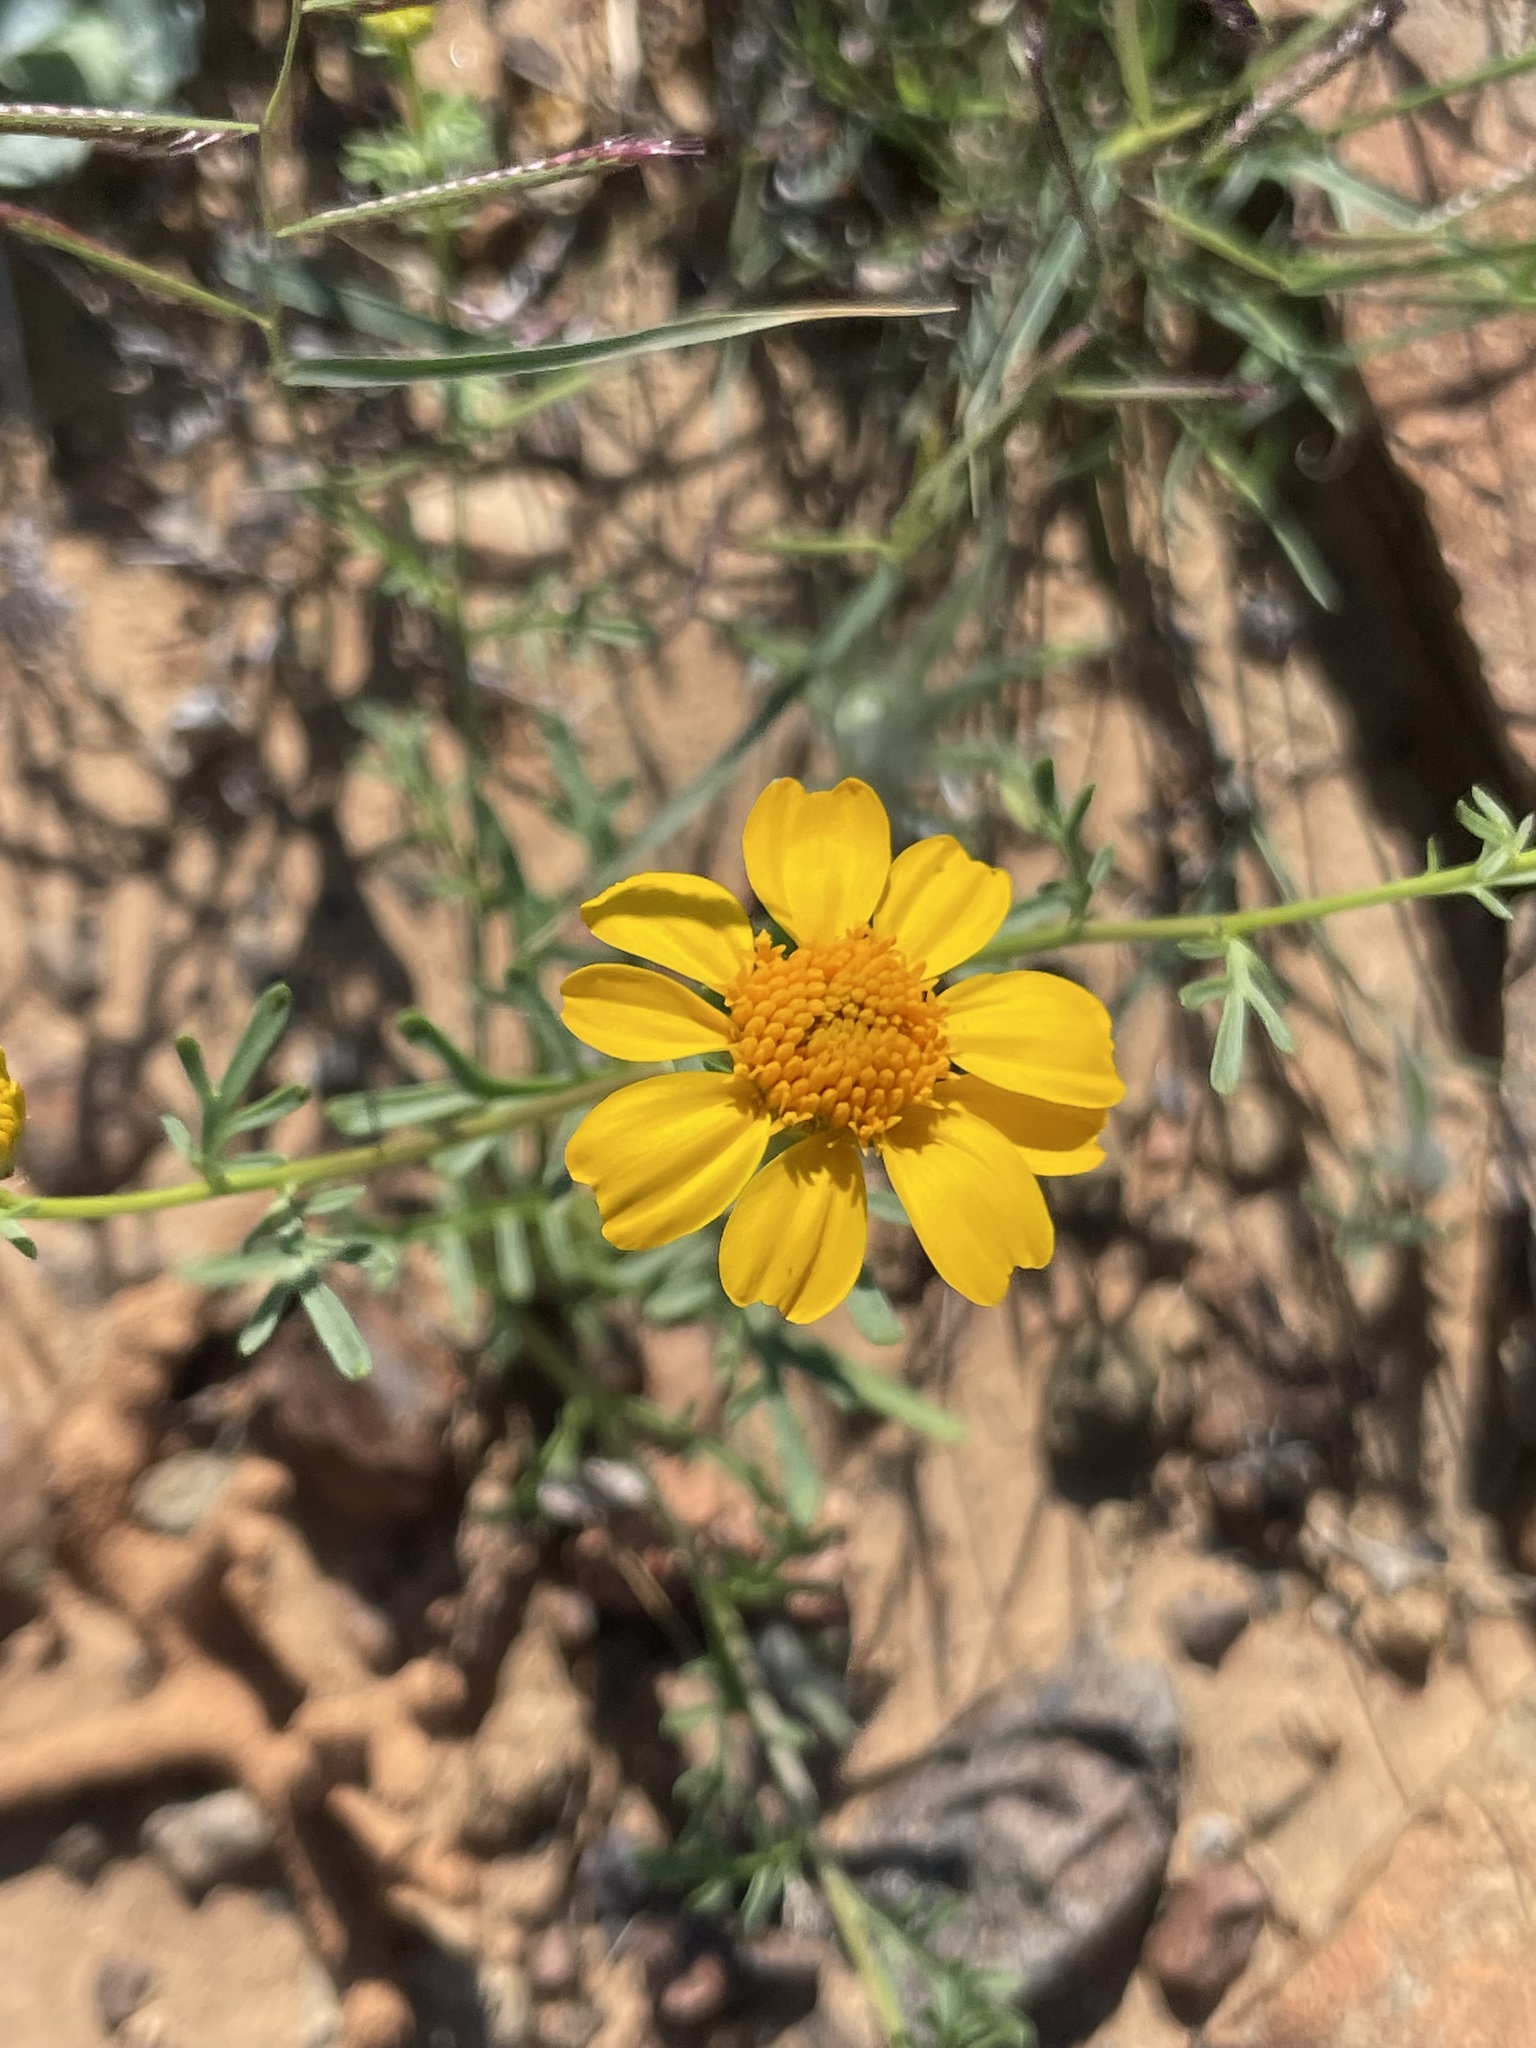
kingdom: Plantae
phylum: Tracheophyta
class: Magnoliopsida
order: Asterales
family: Asteraceae
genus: Boeberastrum
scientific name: Boeberastrum anthemidifolium
